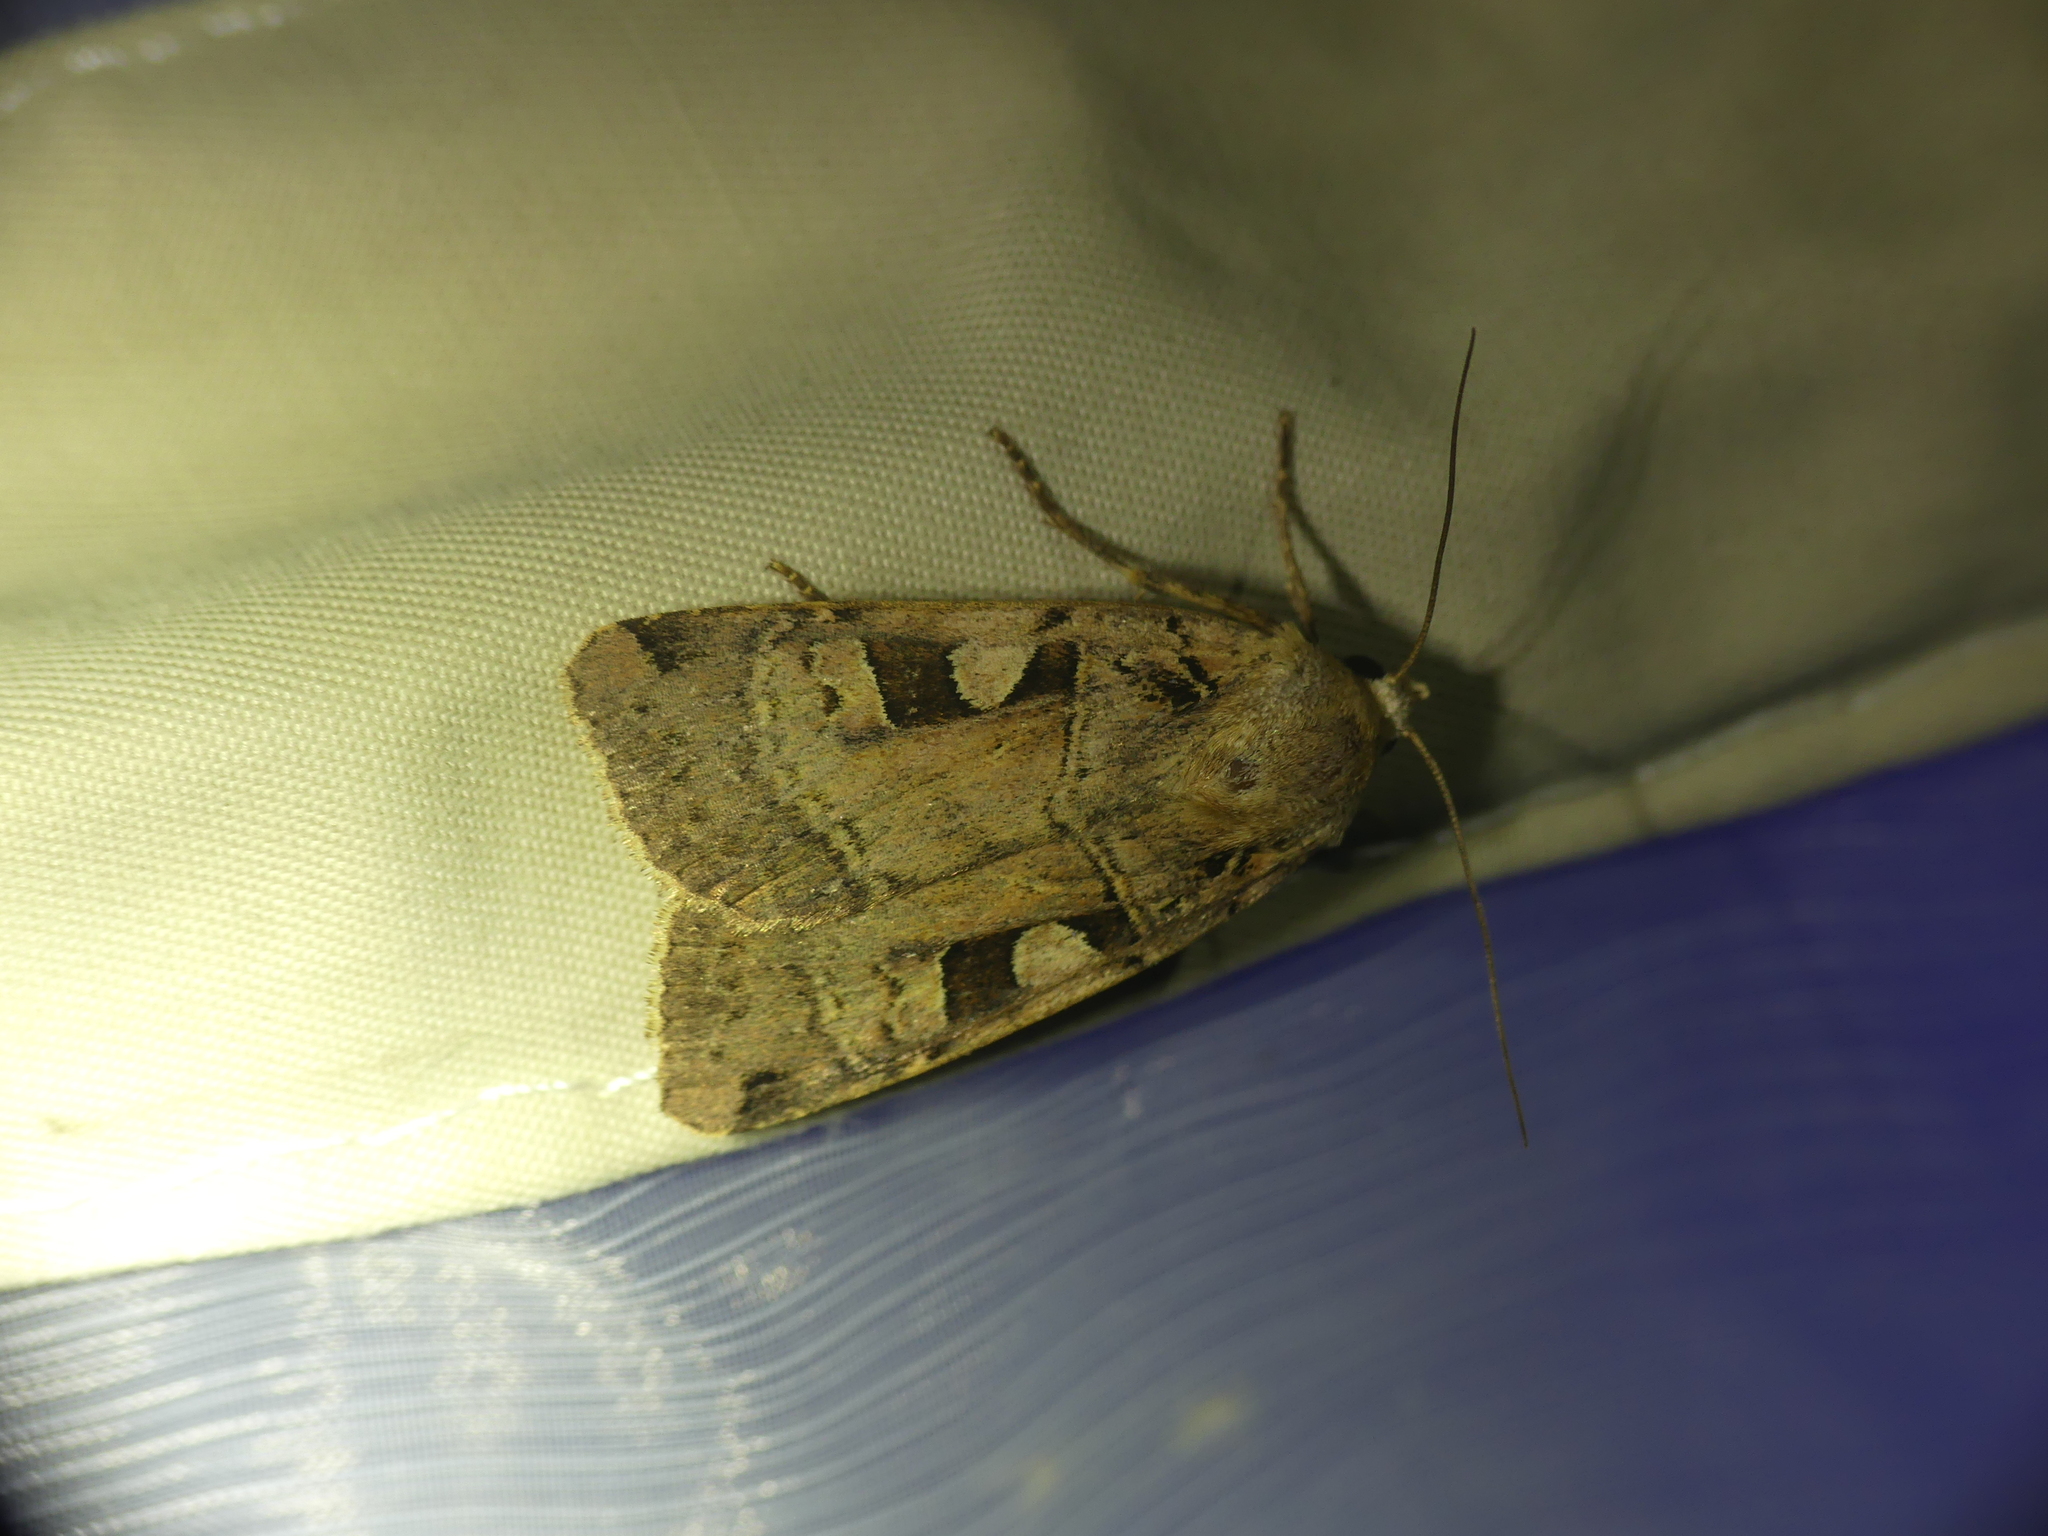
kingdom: Animalia
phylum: Arthropoda
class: Insecta
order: Lepidoptera
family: Noctuidae
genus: Xestia
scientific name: Xestia triangulum
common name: Double square-spot
